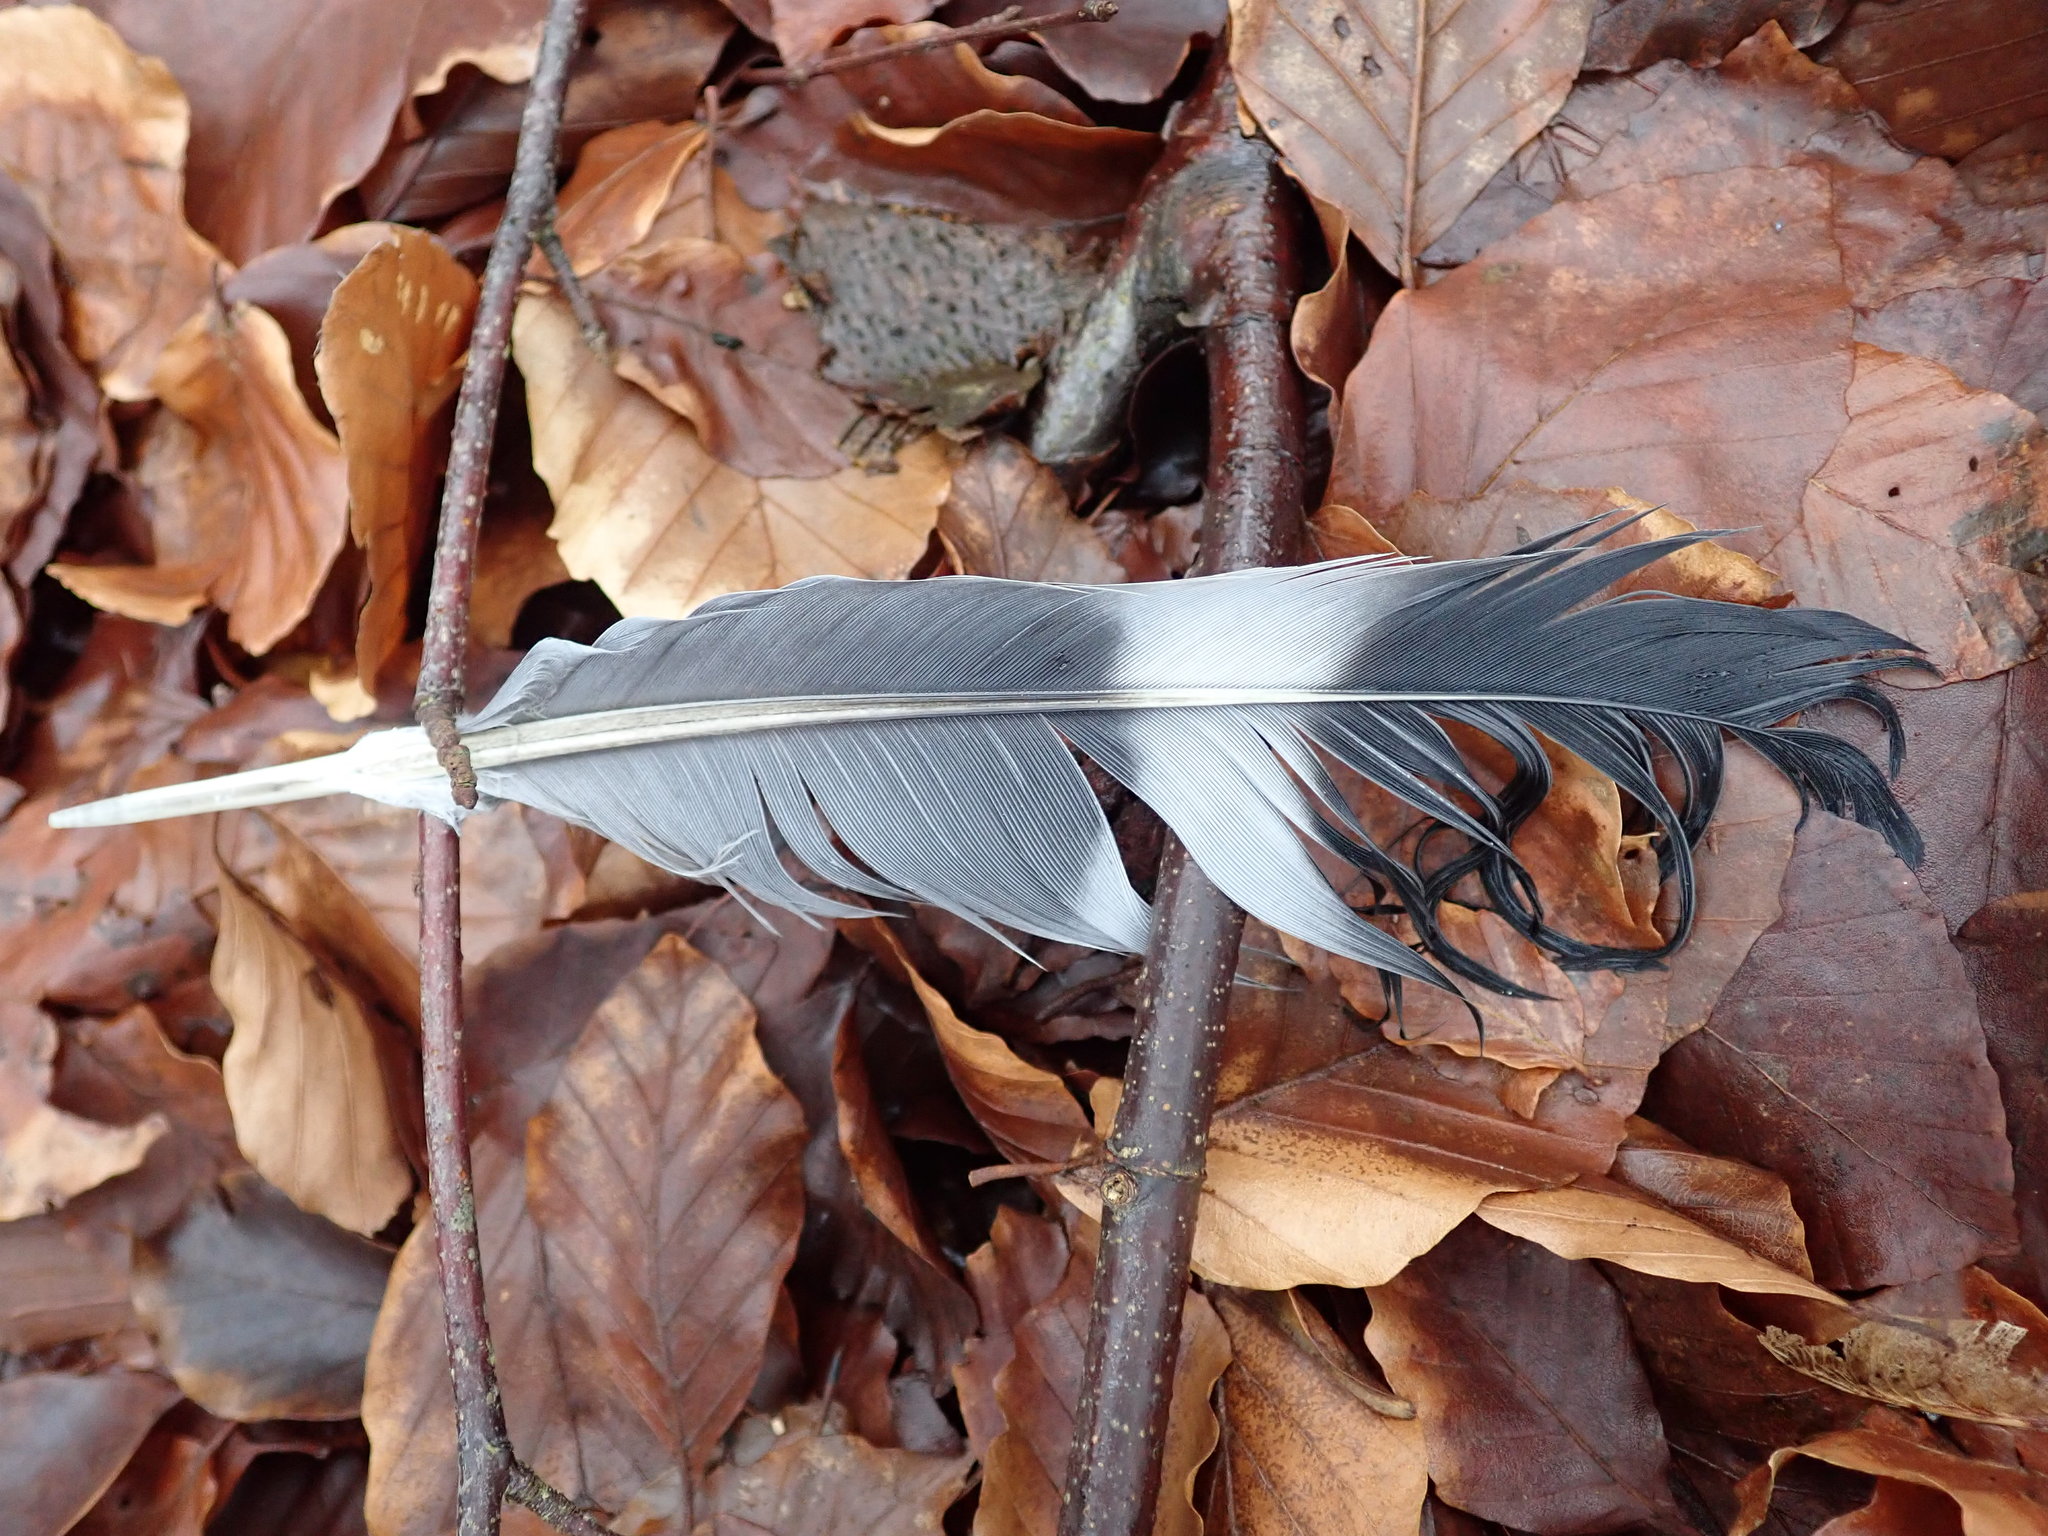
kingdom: Animalia
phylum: Chordata
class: Aves
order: Columbiformes
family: Columbidae
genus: Columba
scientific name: Columba palumbus
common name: Common wood pigeon
